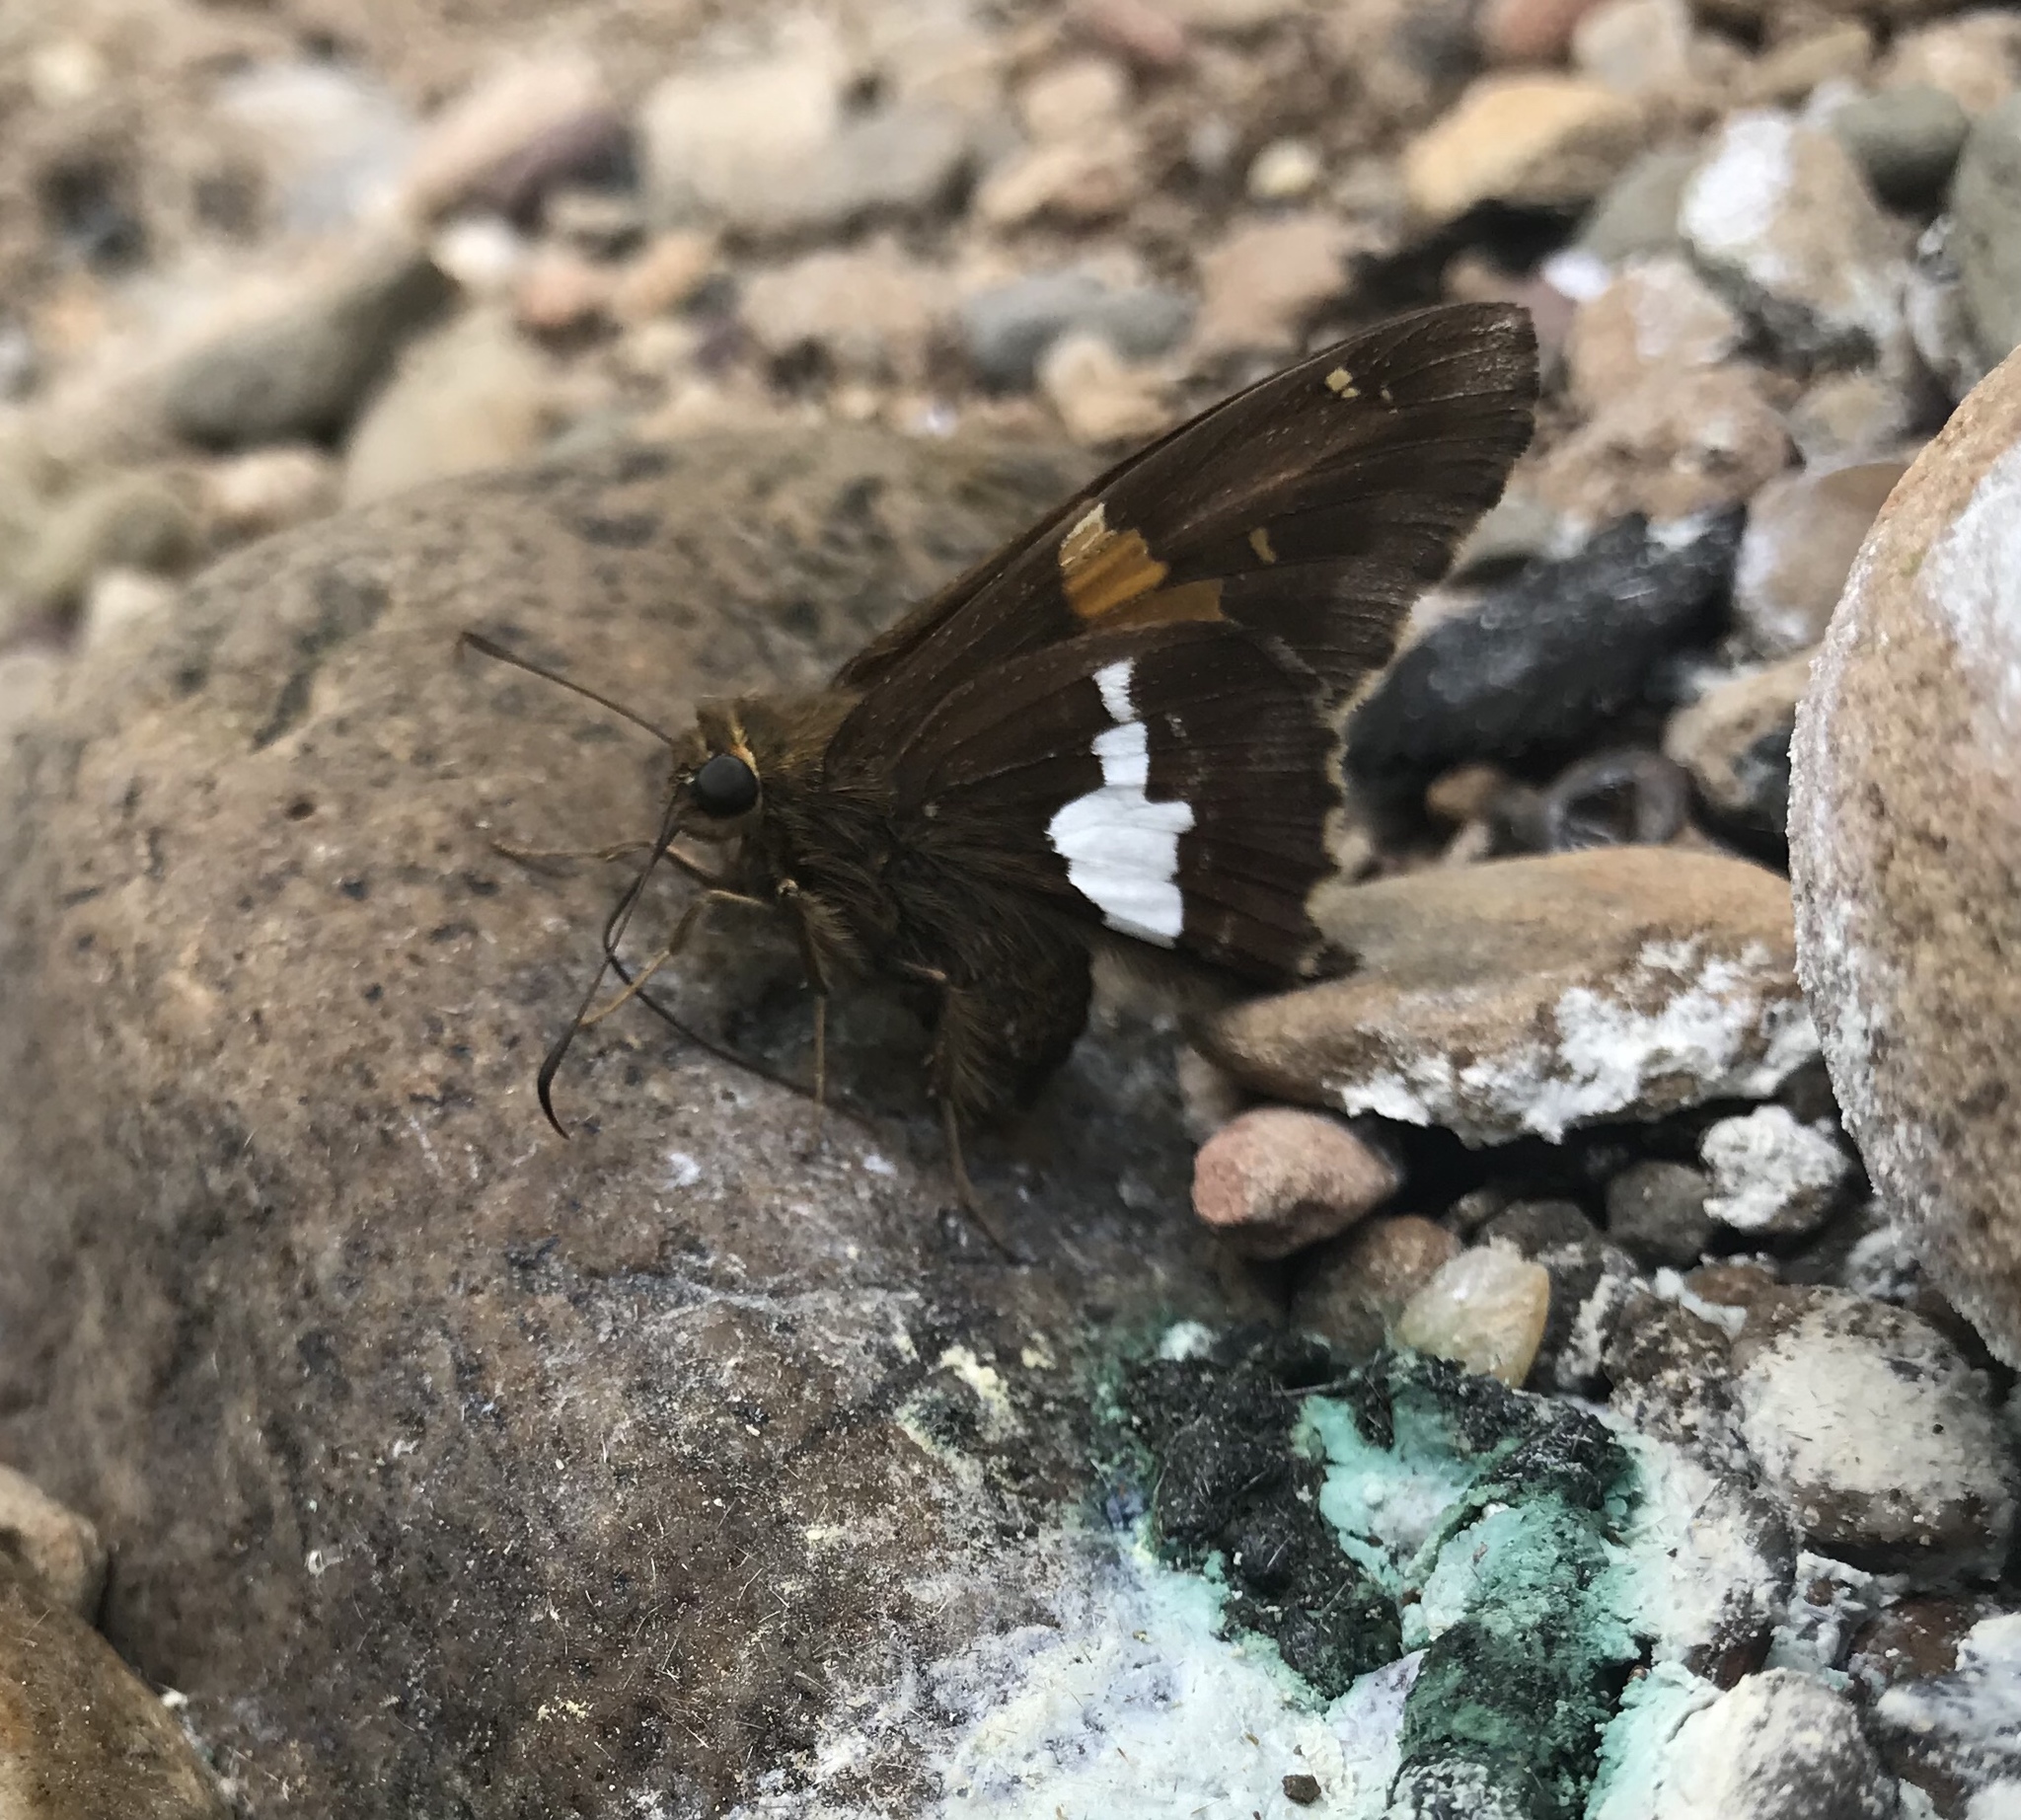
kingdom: Animalia
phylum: Arthropoda
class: Insecta
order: Lepidoptera
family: Hesperiidae
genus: Epargyreus
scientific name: Epargyreus clarus
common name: Silver-spotted skipper
